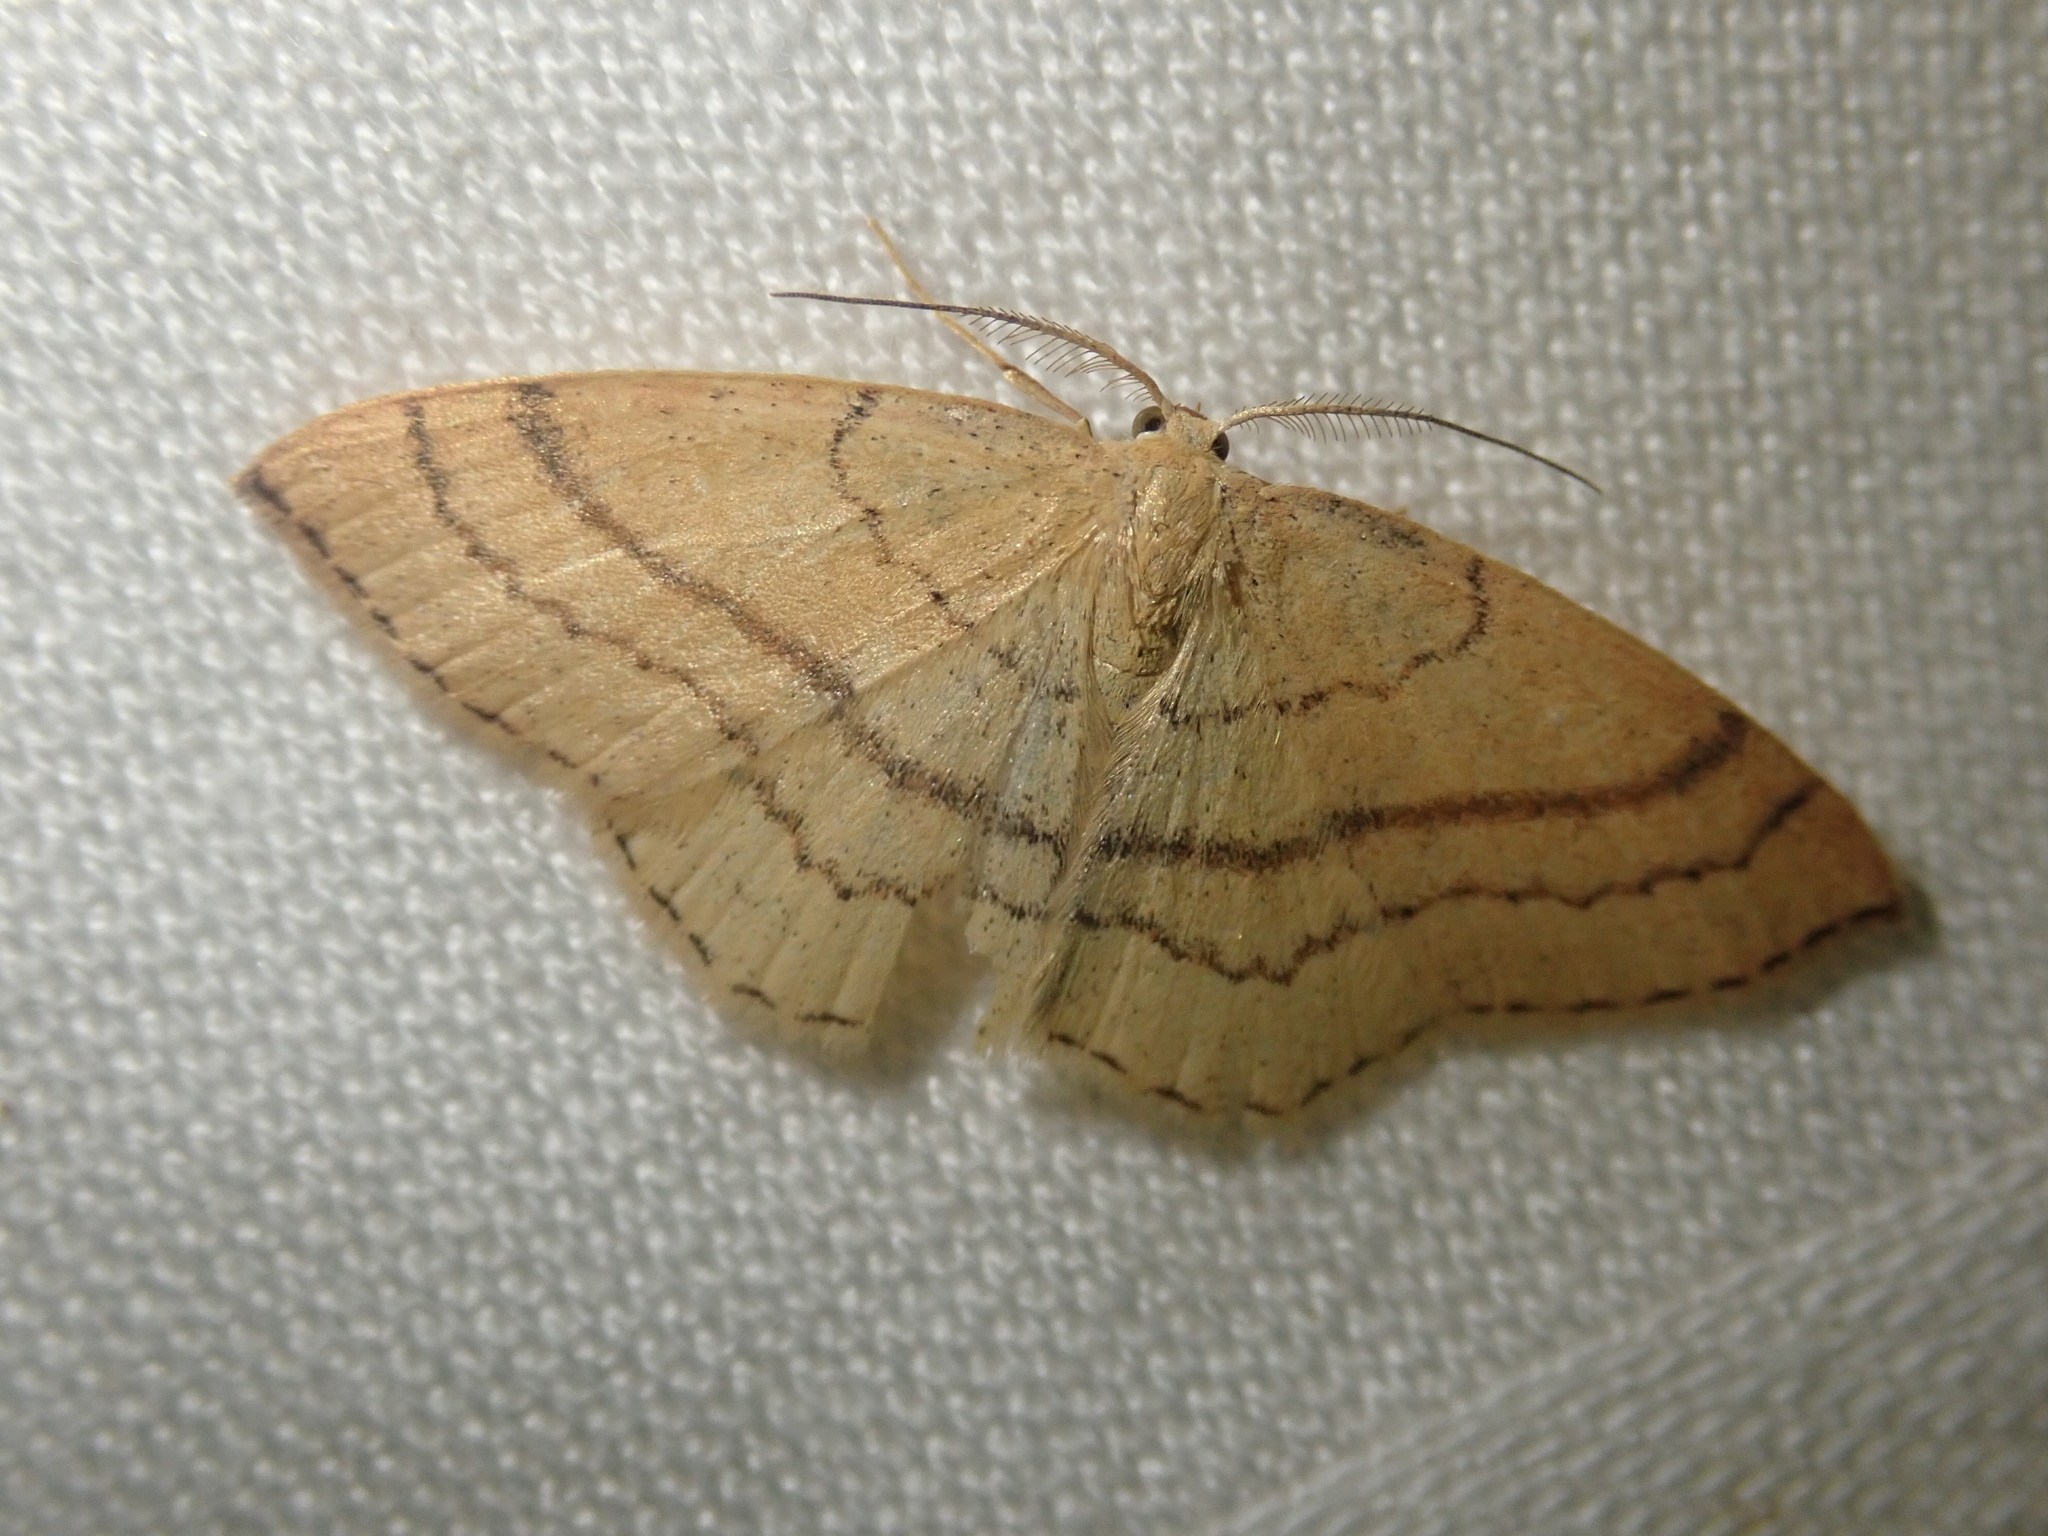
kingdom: Animalia
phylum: Arthropoda
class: Insecta
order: Lepidoptera
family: Geometridae
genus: Cyclophora
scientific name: Cyclophora linearia
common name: Clay triple-lines
